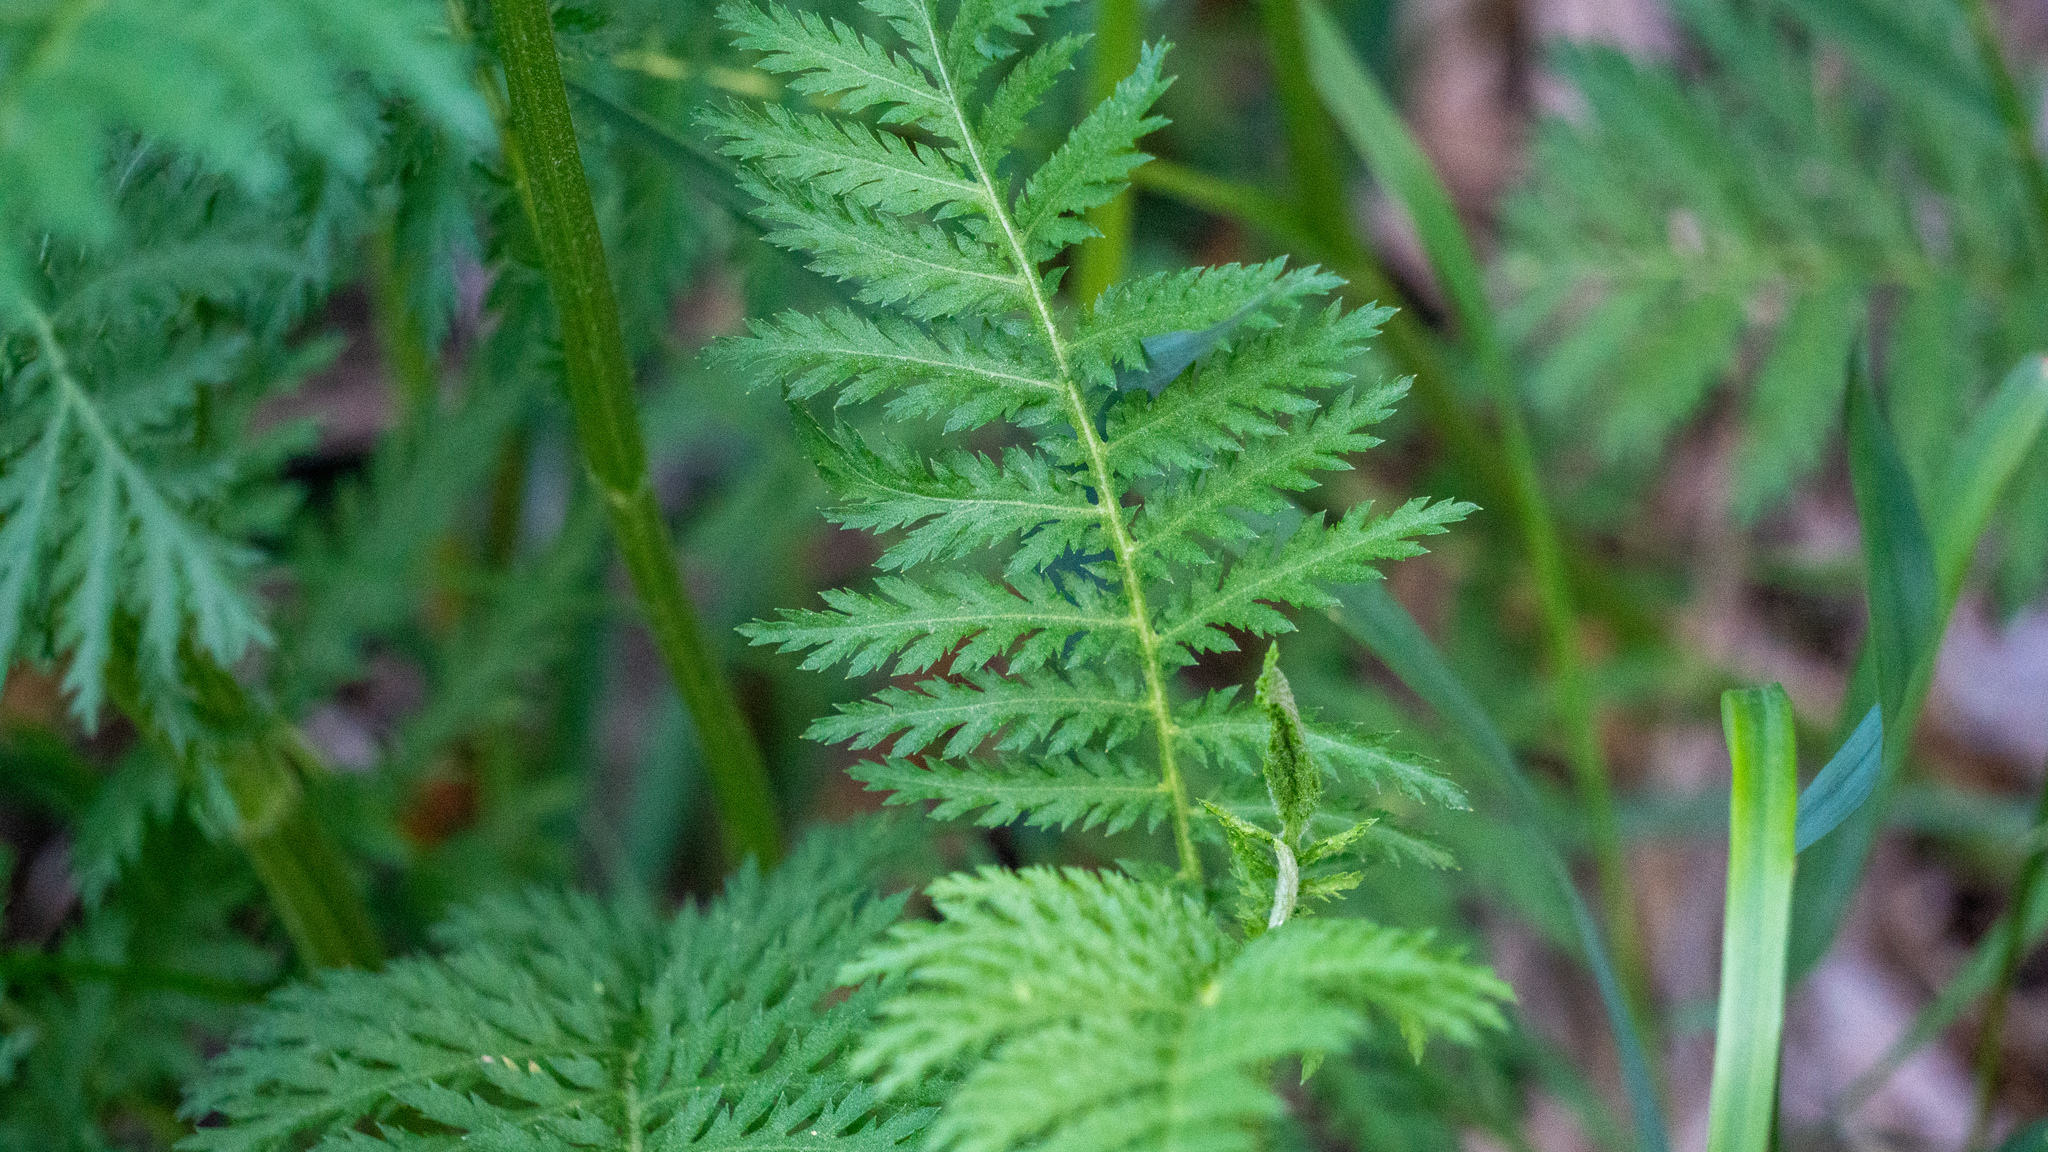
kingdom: Plantae
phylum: Tracheophyta
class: Magnoliopsida
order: Asterales
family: Asteraceae
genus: Tanacetum
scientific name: Tanacetum vulgare
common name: Common tansy
